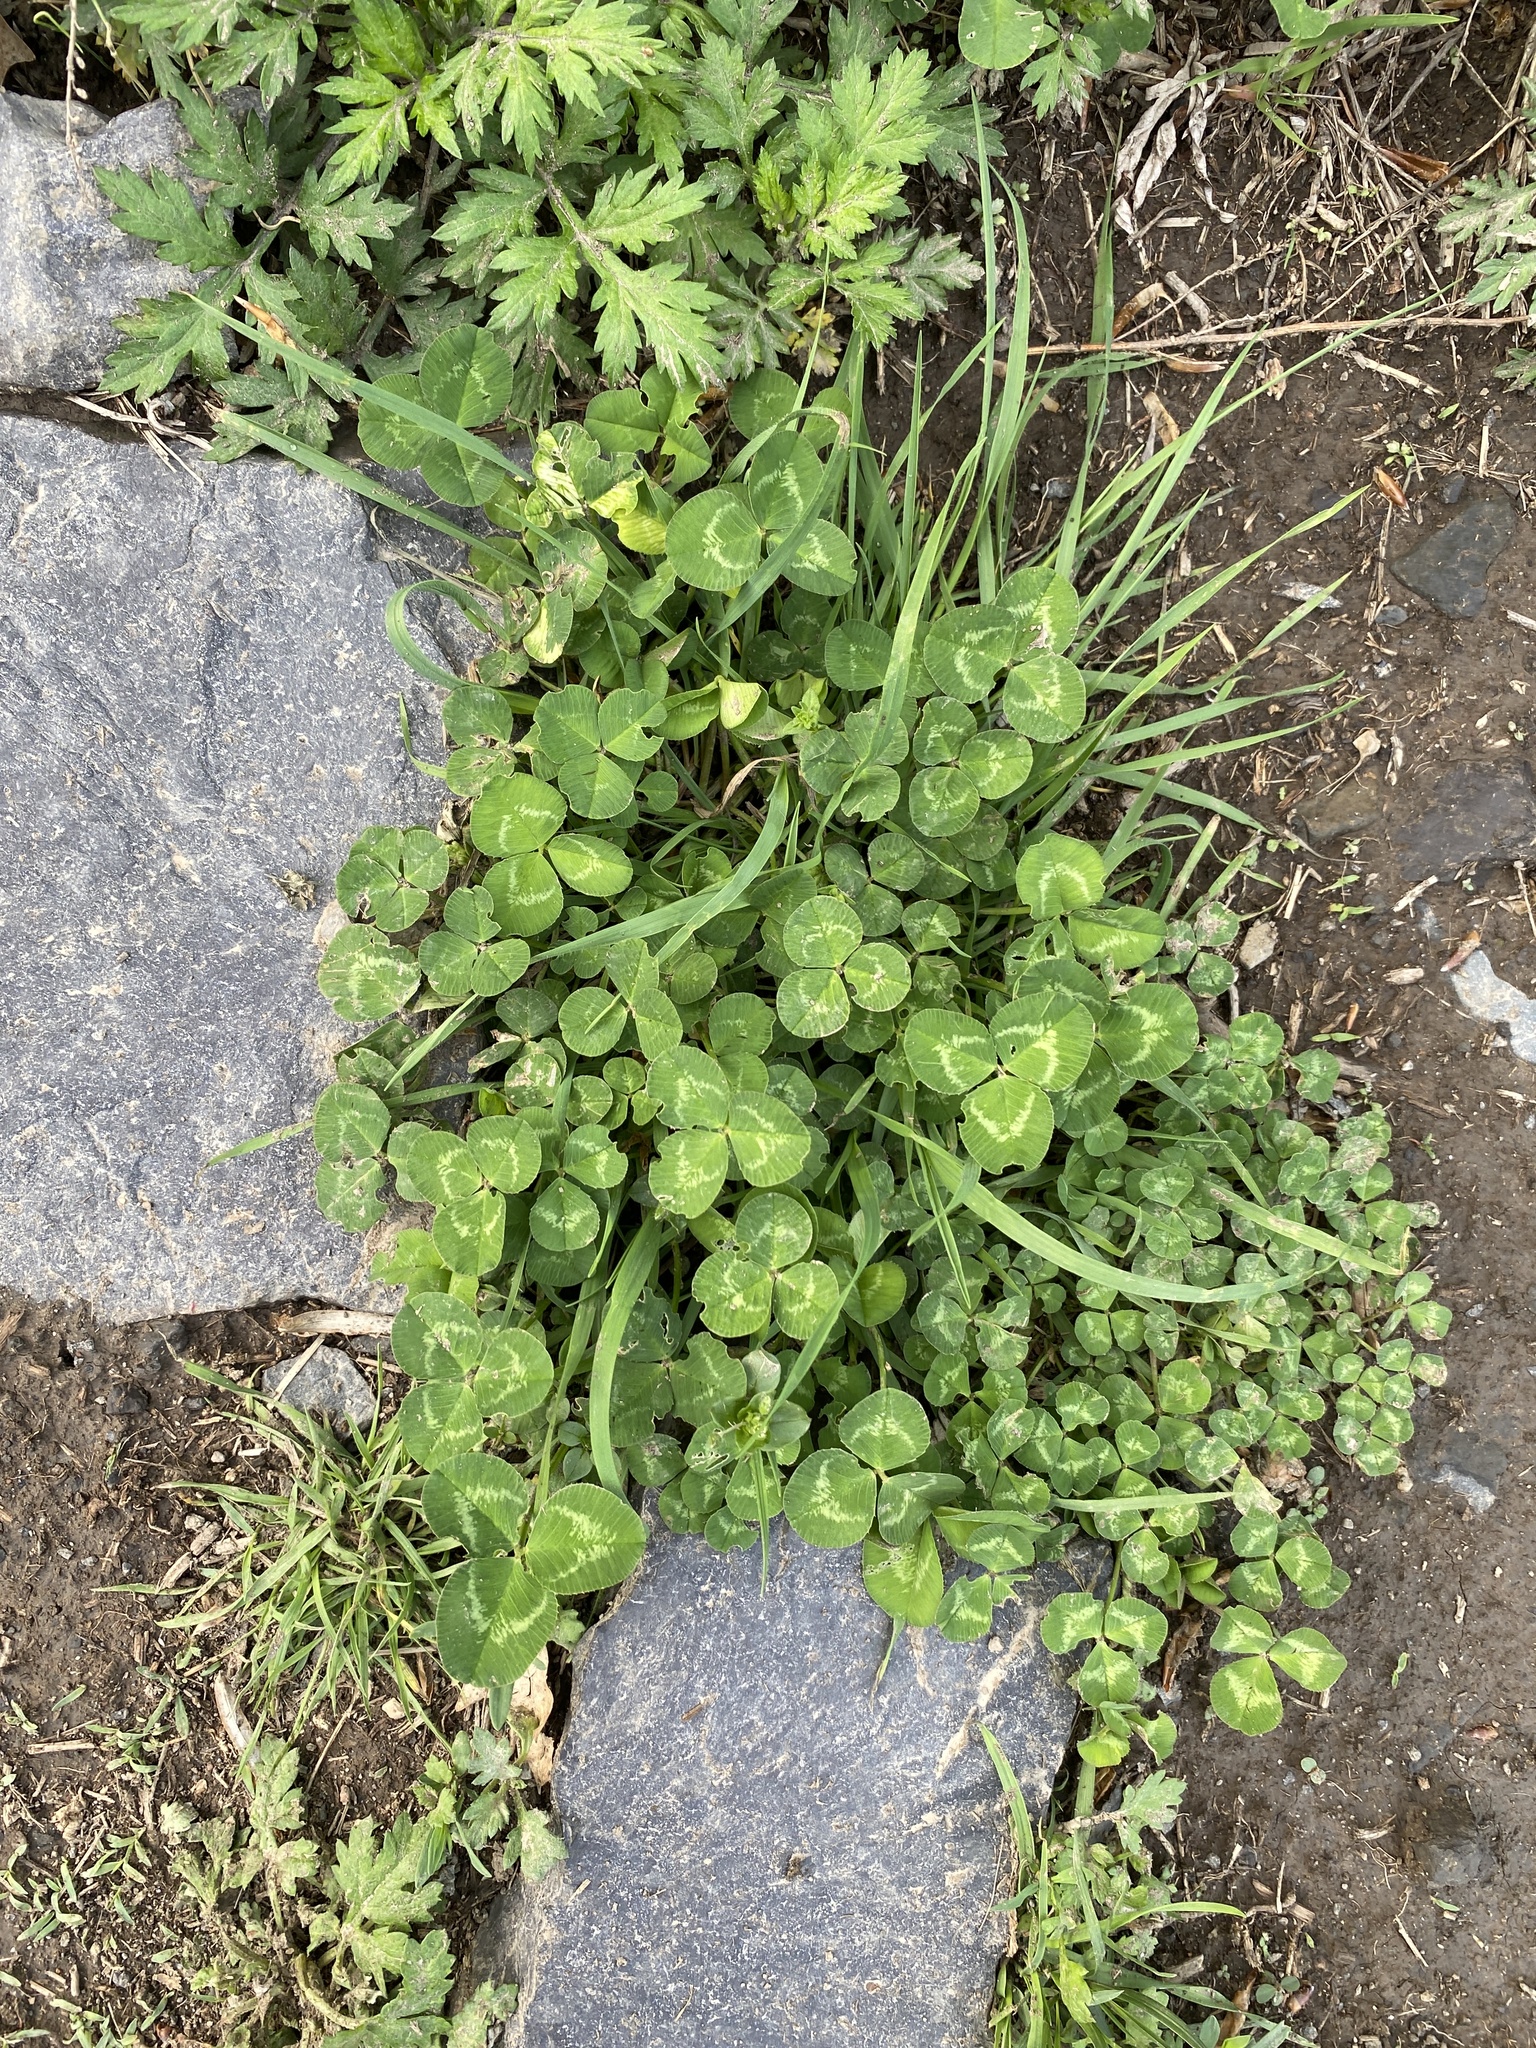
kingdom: Plantae
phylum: Tracheophyta
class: Magnoliopsida
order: Fabales
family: Fabaceae
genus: Trifolium
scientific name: Trifolium repens
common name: White clover
